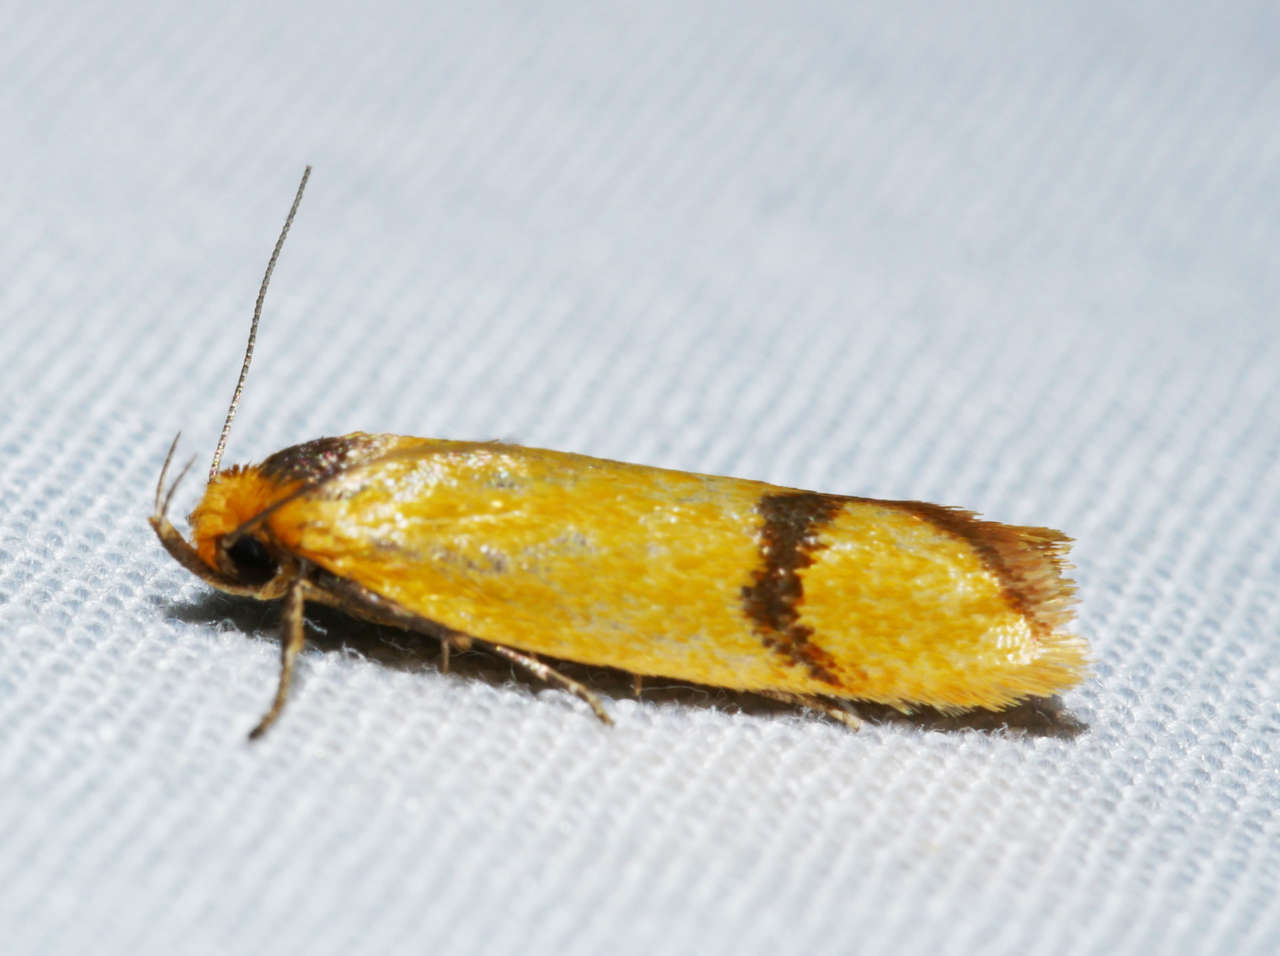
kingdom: Animalia
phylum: Arthropoda
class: Insecta
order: Lepidoptera
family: Oecophoridae
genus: Plectobela
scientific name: Plectobela zanclotoma
